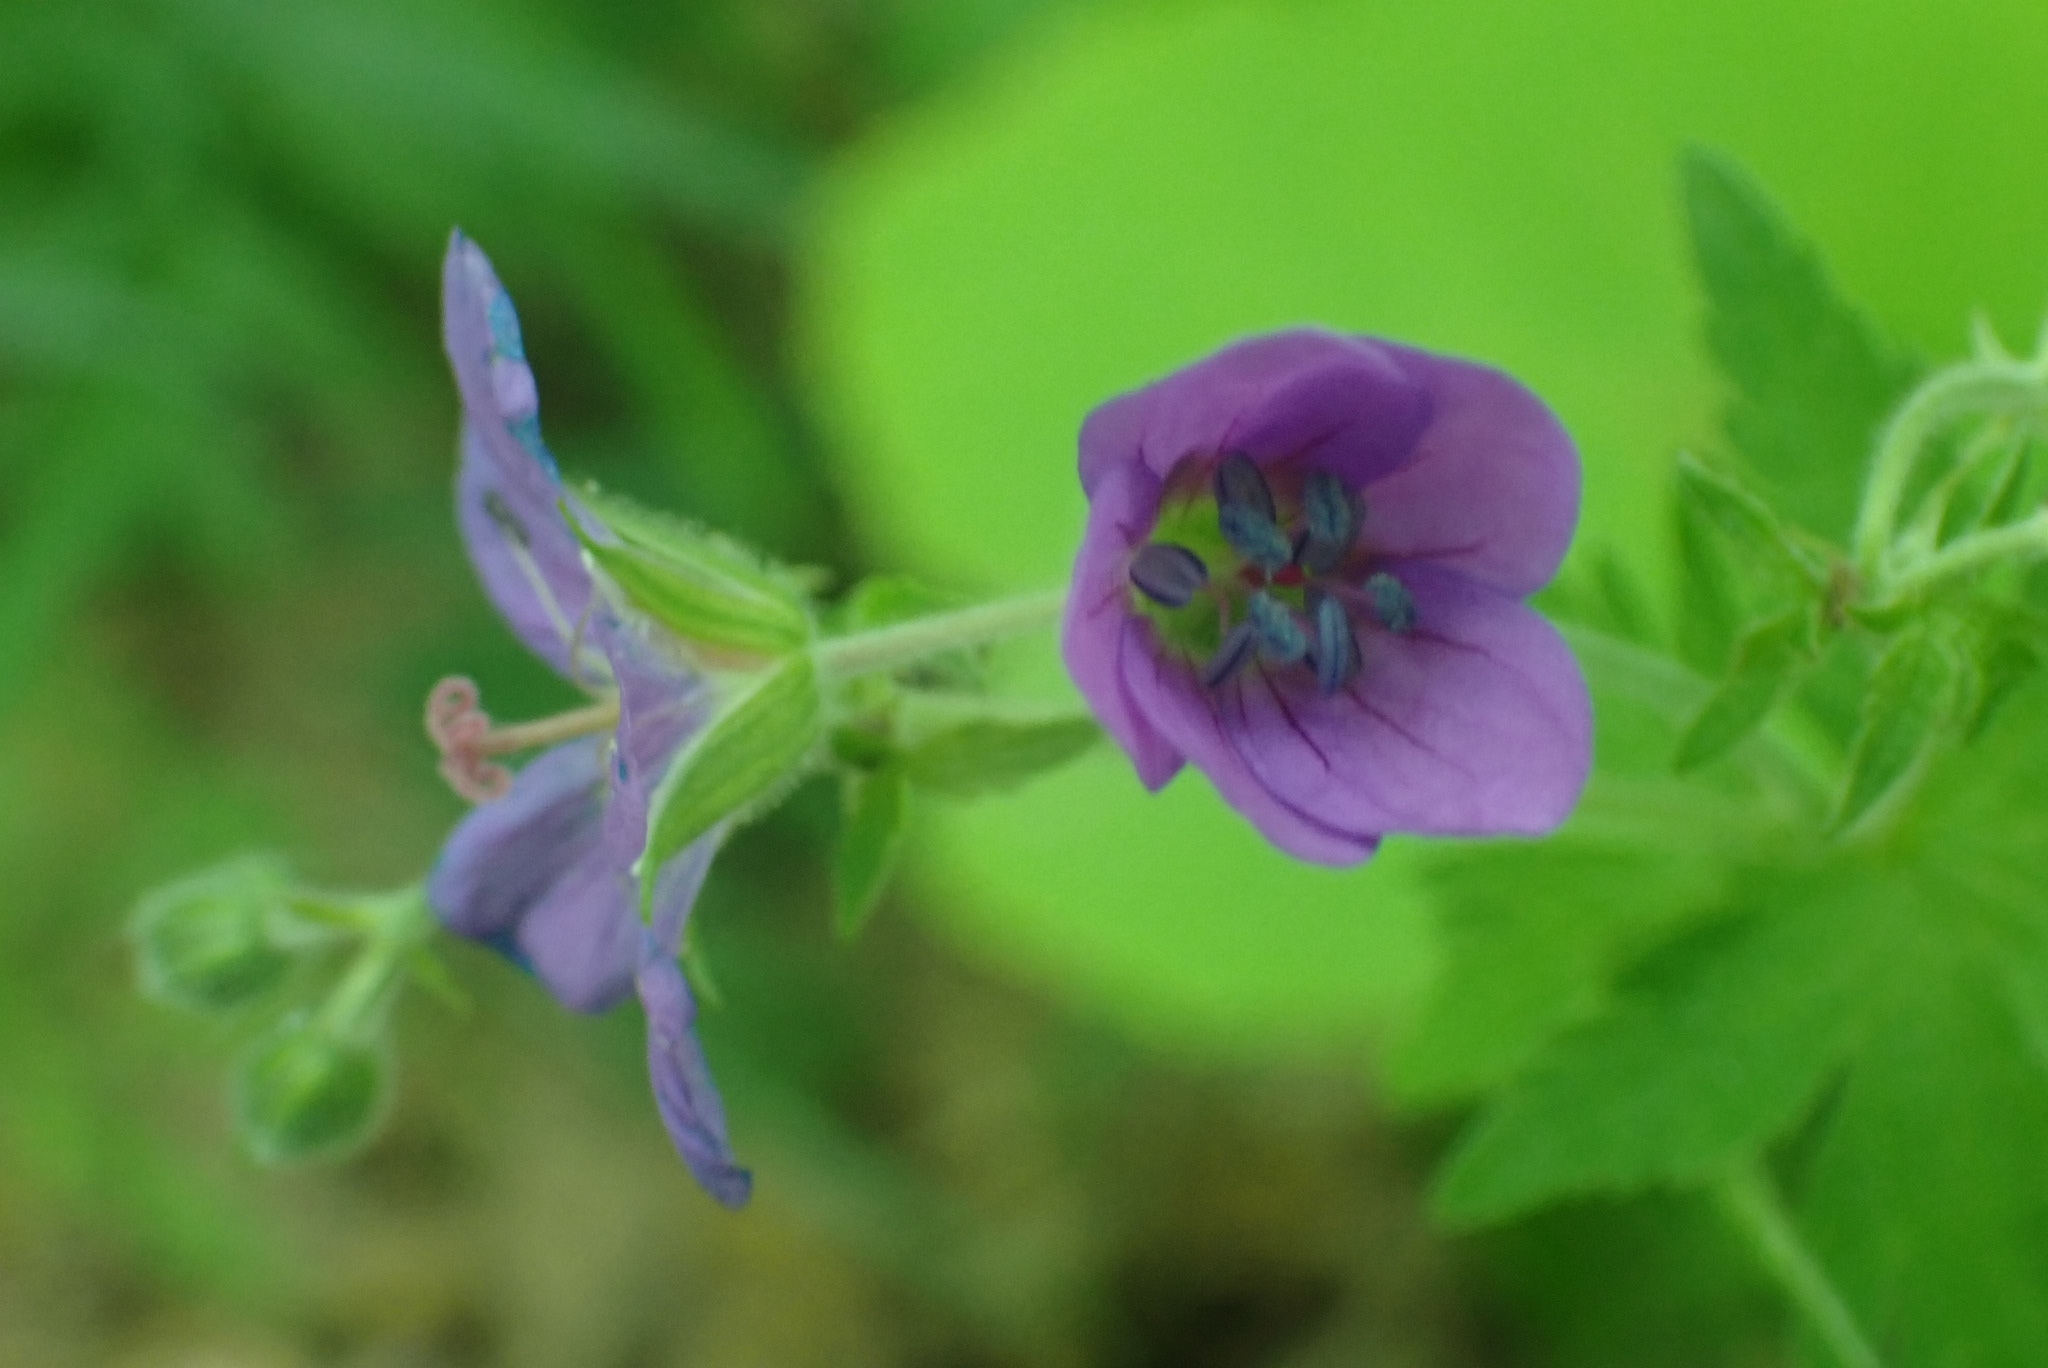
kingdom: Plantae
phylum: Tracheophyta
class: Magnoliopsida
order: Geraniales
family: Geraniaceae
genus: Geranium
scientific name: Geranium sylvaticum
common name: Wood crane's-bill
